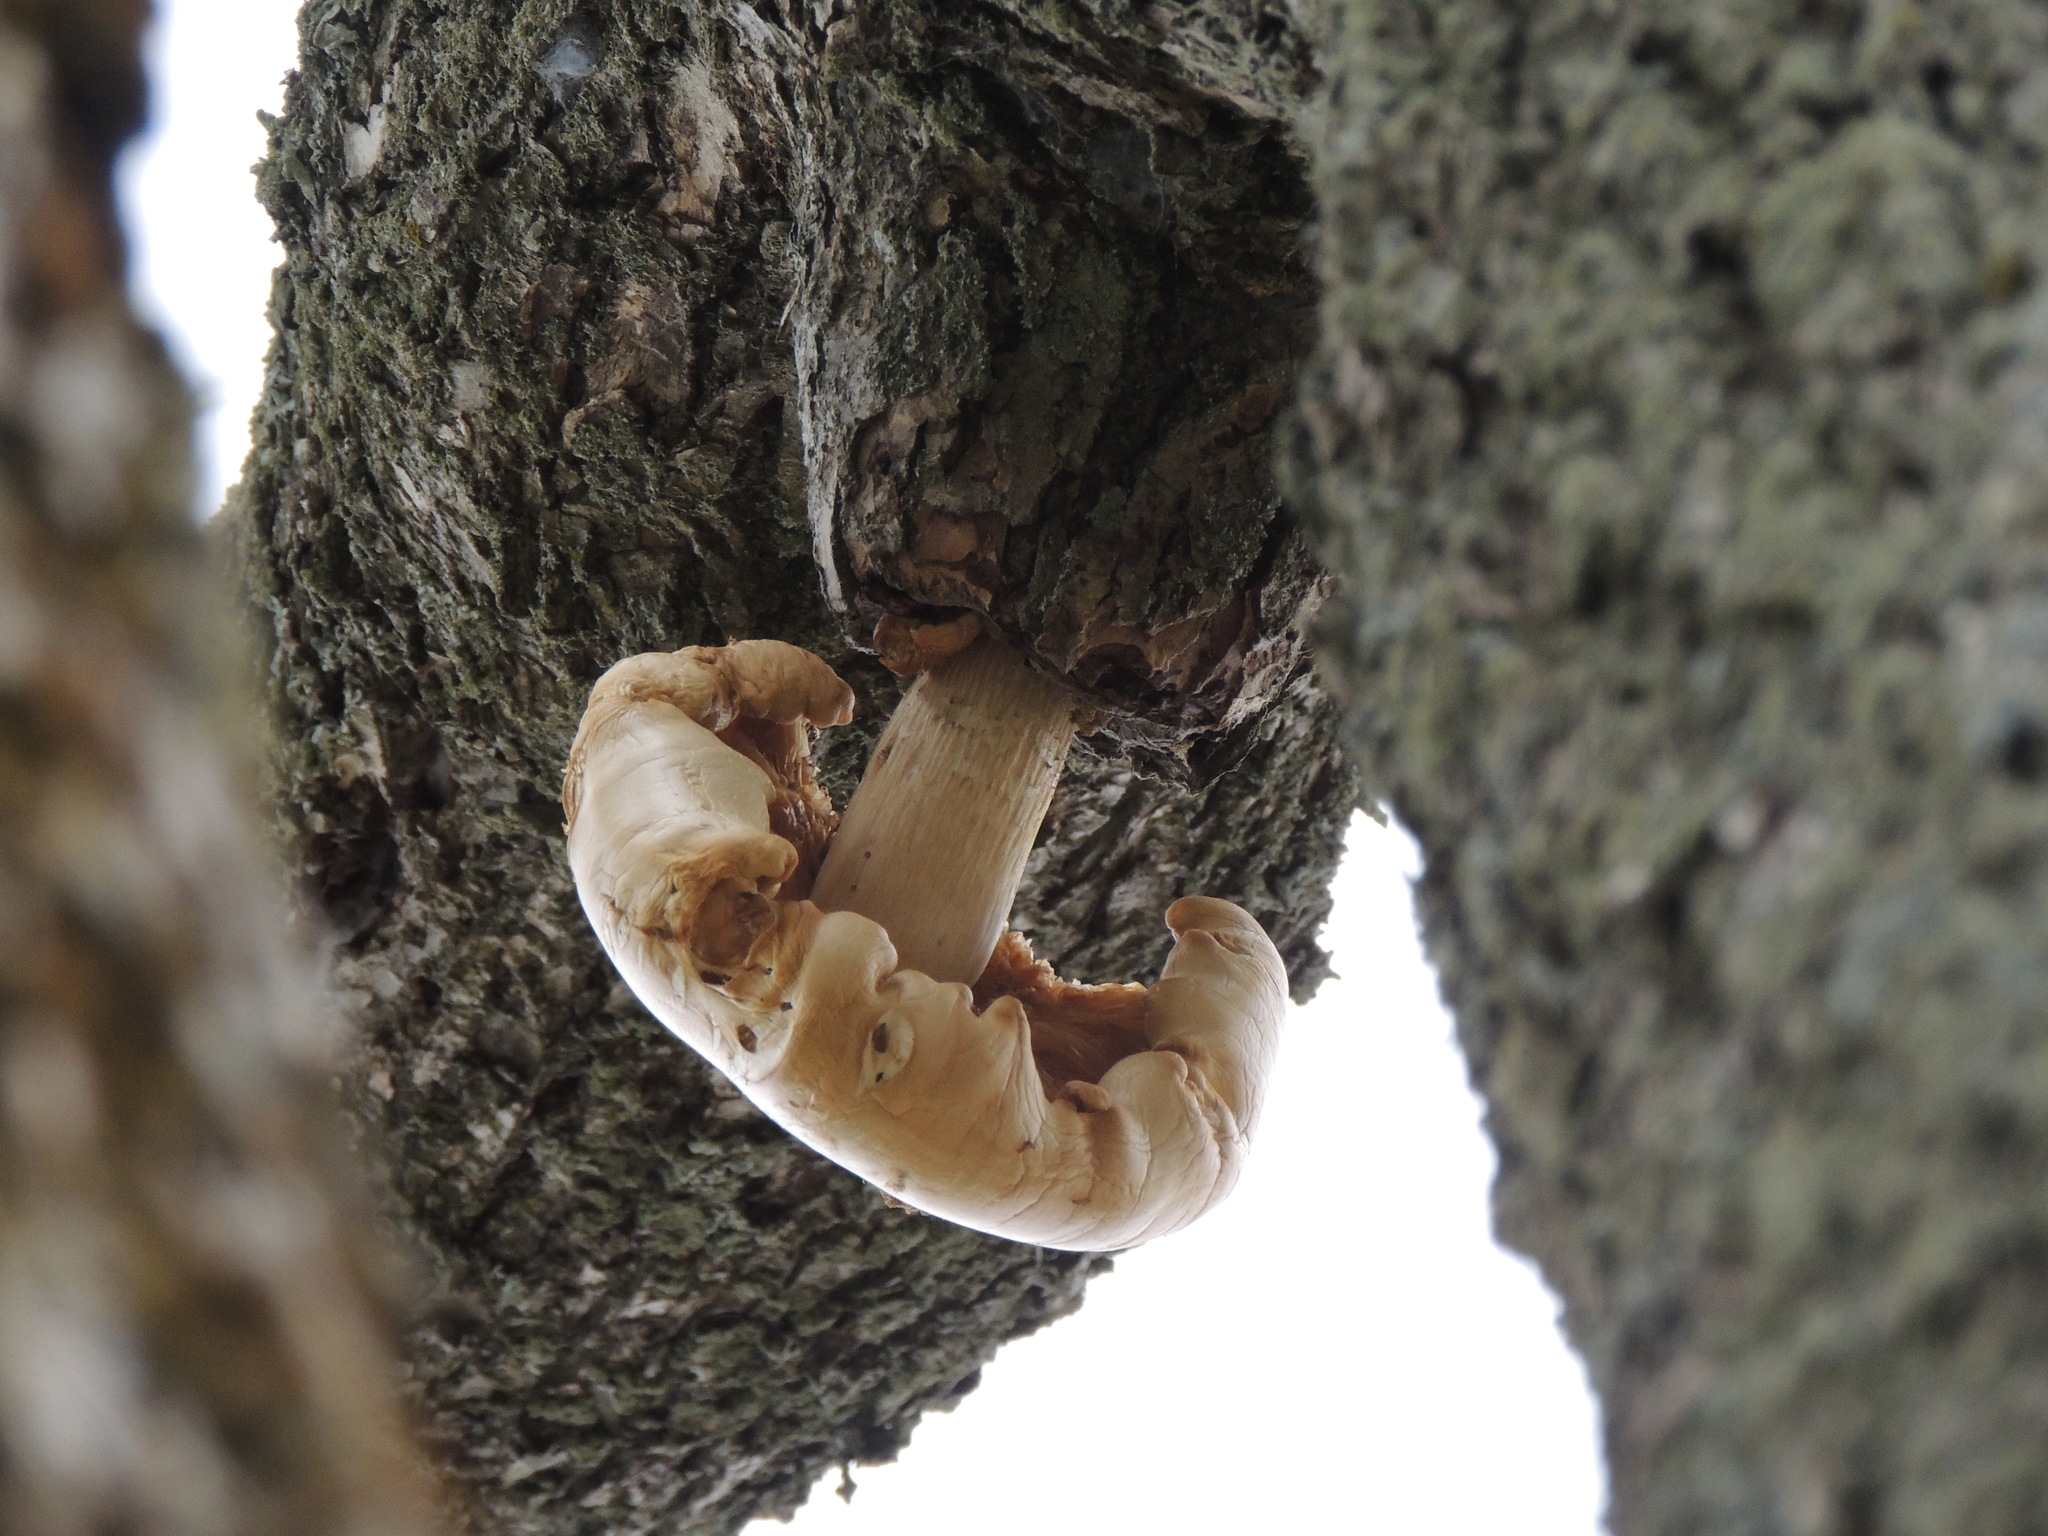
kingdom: Fungi
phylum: Basidiomycota
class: Agaricomycetes
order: Agaricales
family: Lyophyllaceae
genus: Hypsizygus
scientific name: Hypsizygus ulmarius
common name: Elm leech
